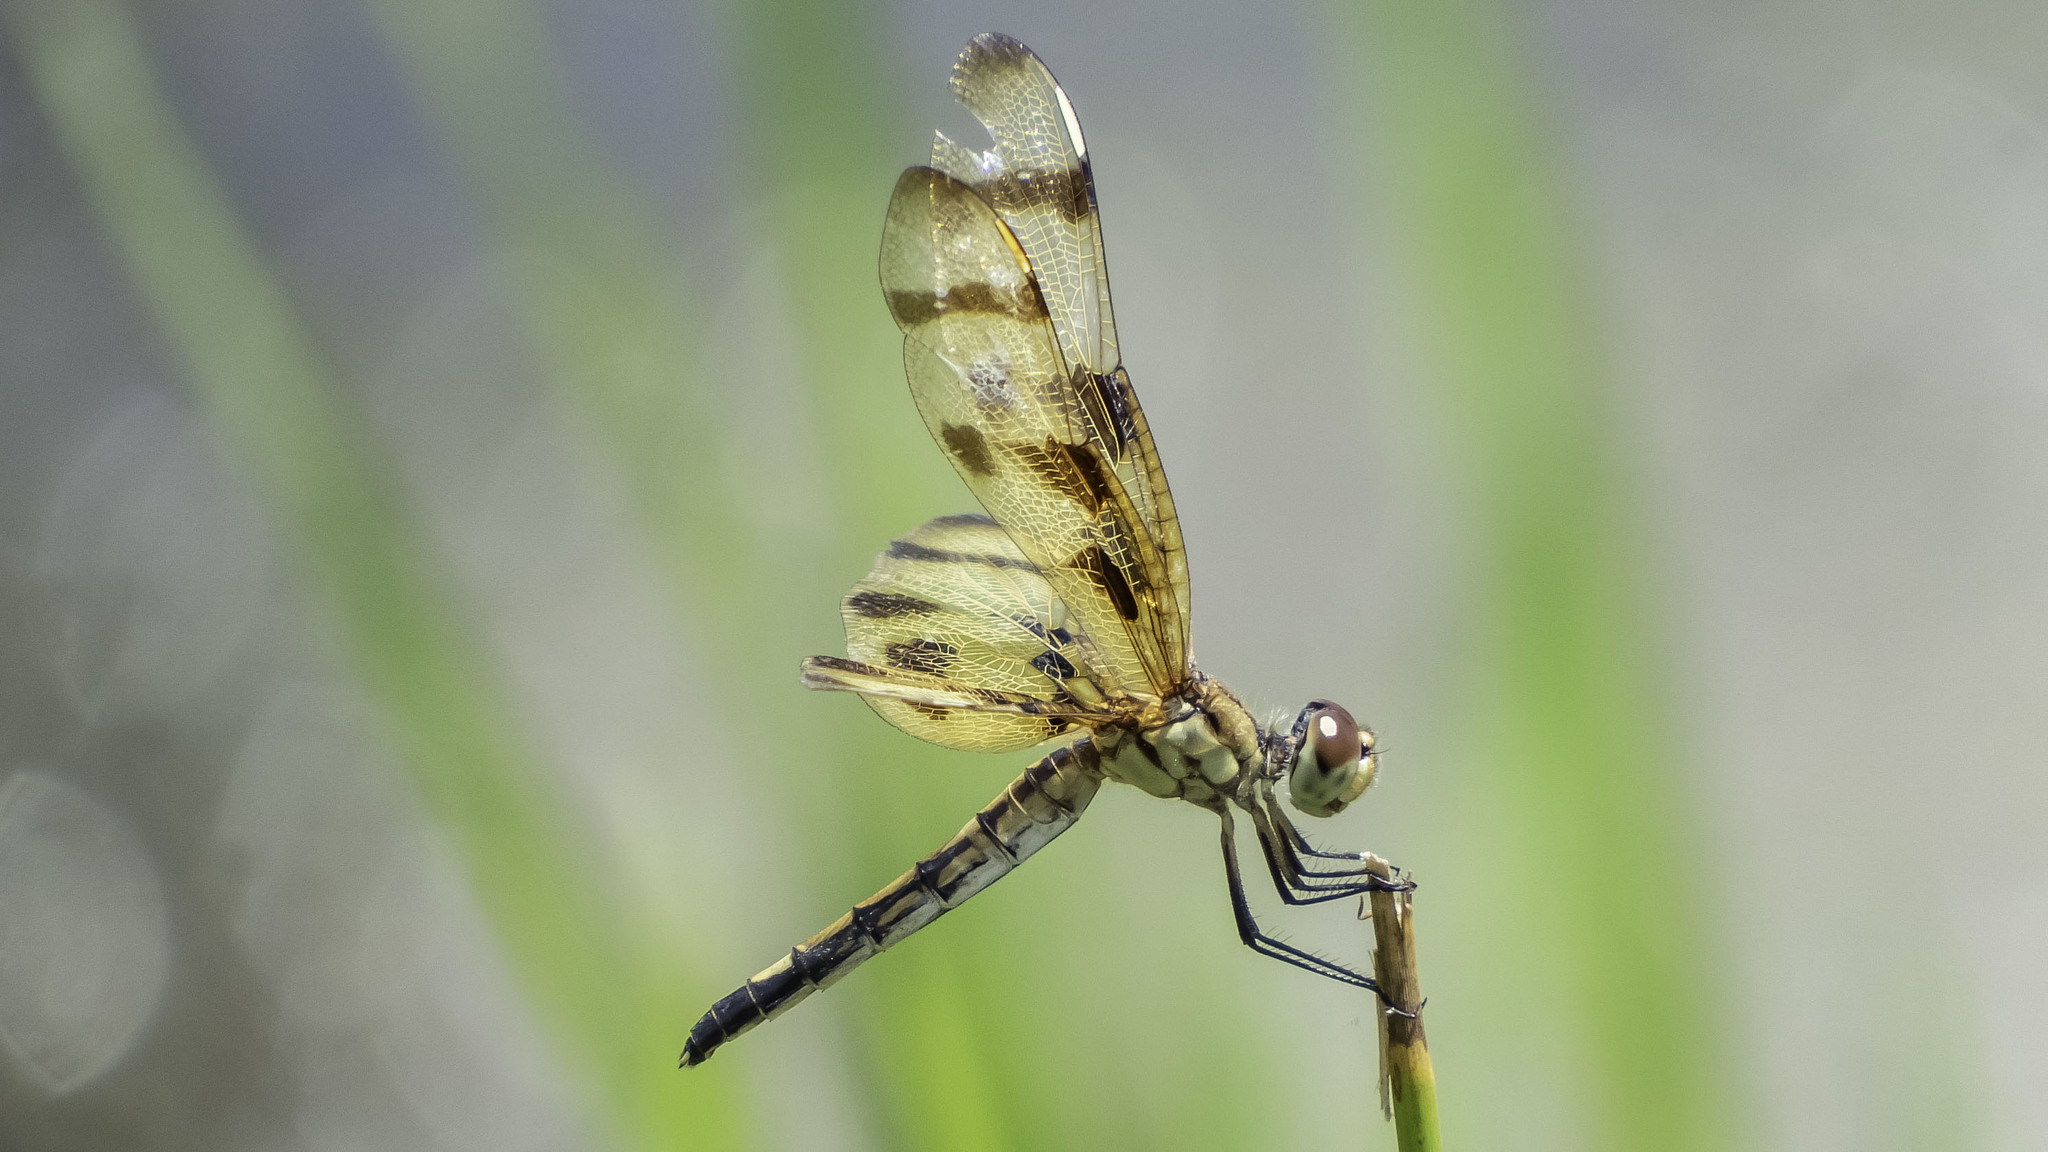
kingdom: Animalia
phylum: Arthropoda
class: Insecta
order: Odonata
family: Libellulidae
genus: Celithemis
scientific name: Celithemis eponina
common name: Halloween pennant
